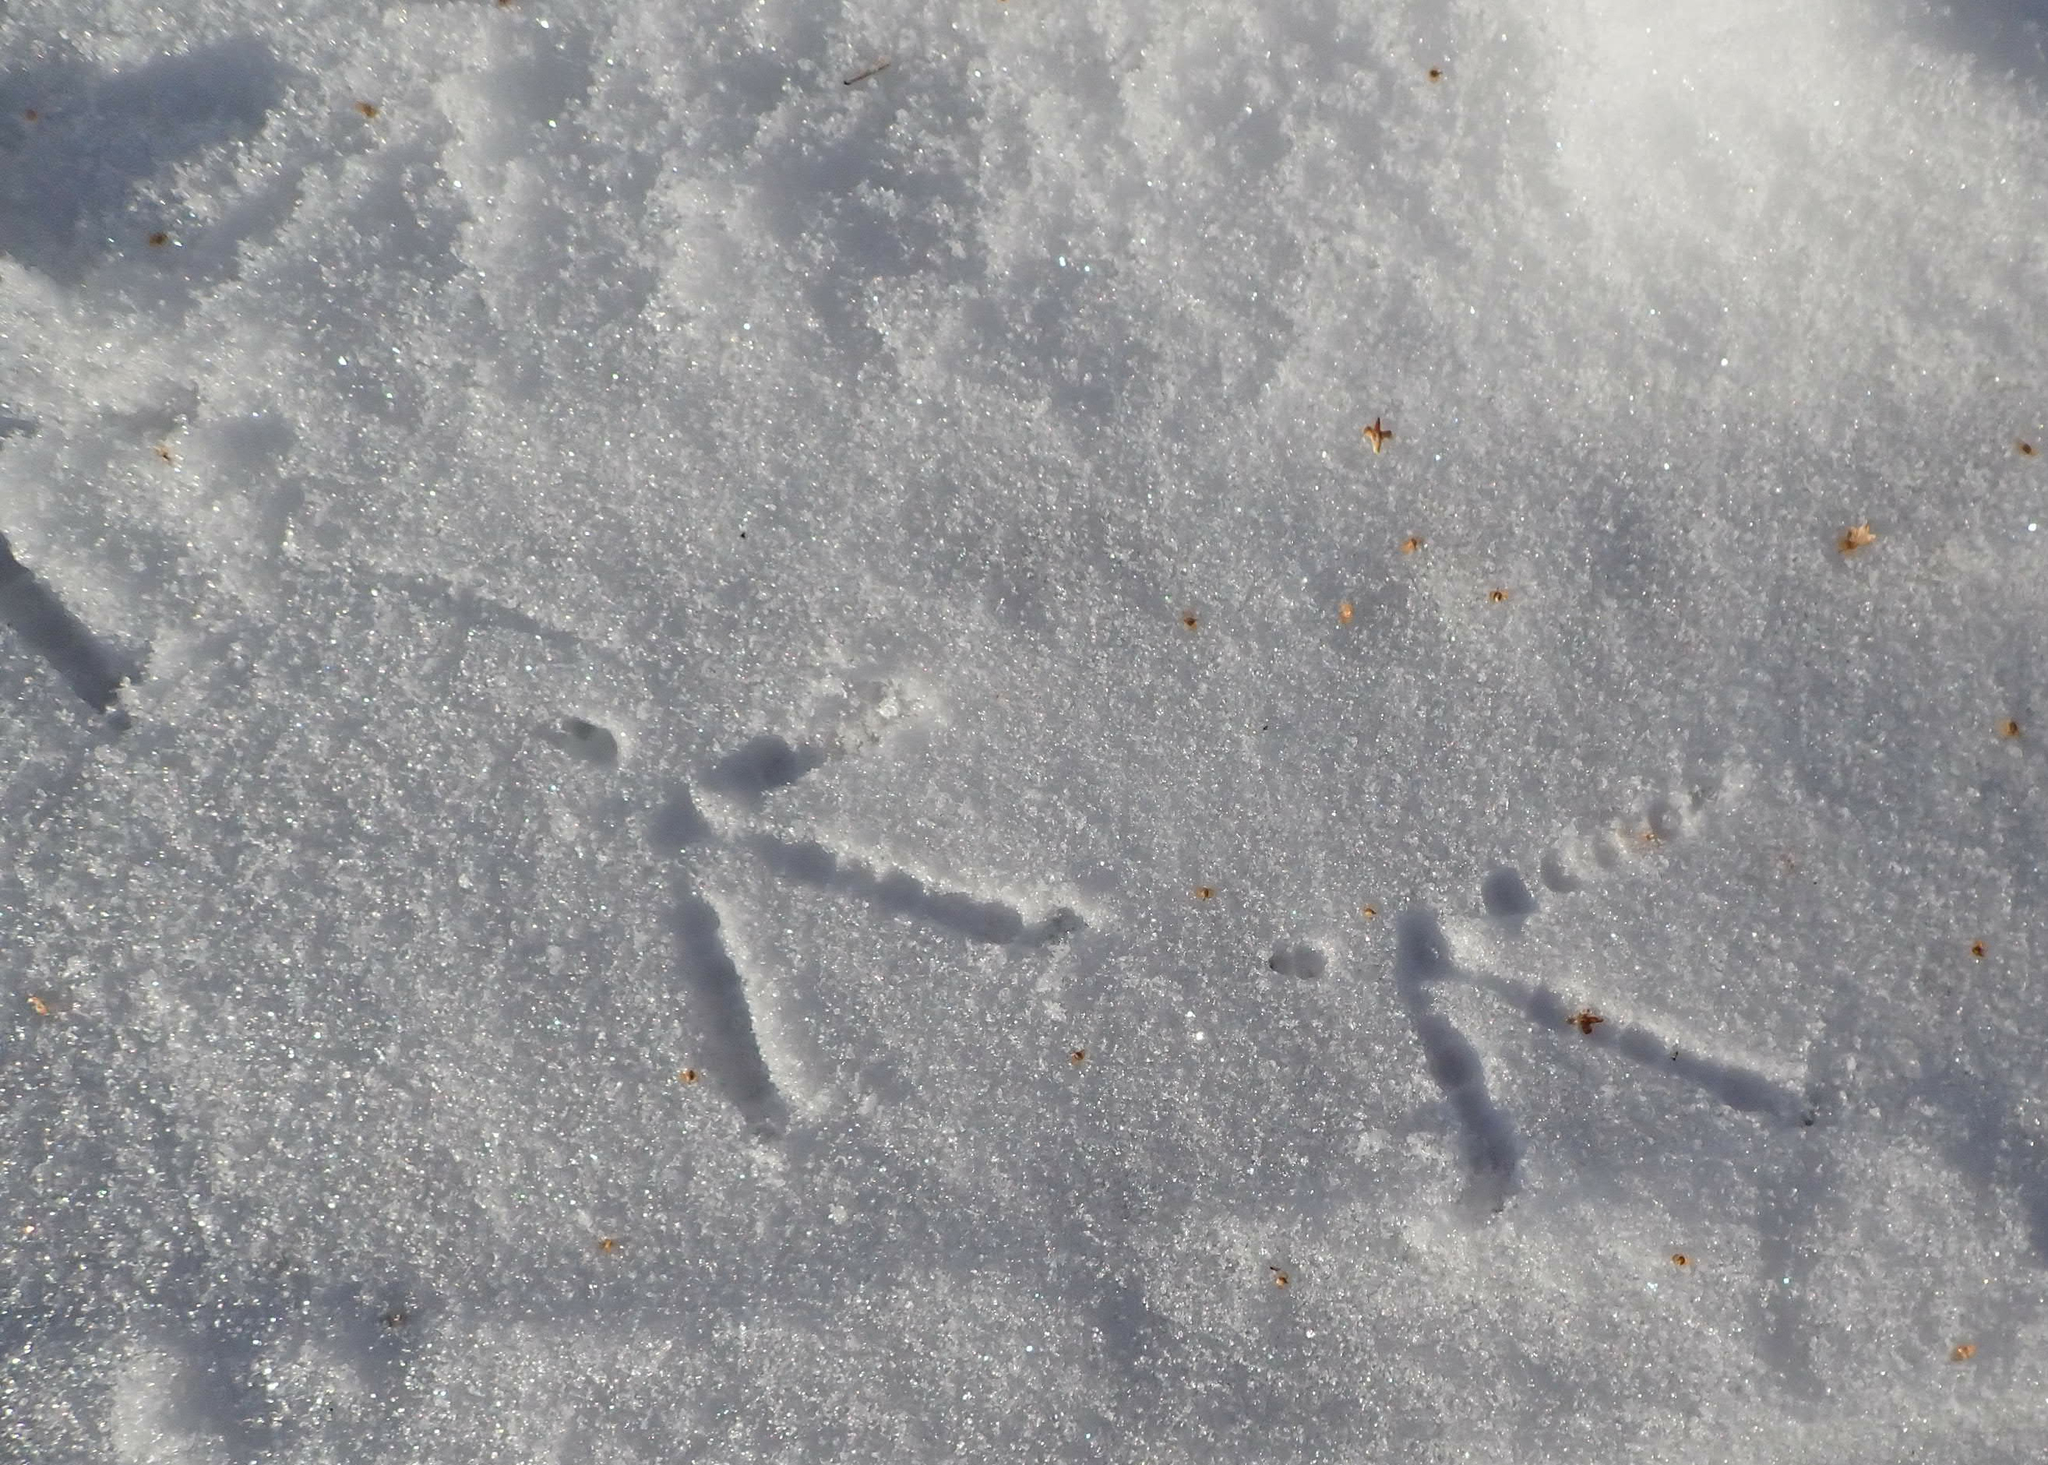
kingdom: Animalia
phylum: Chordata
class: Aves
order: Galliformes
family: Phasianidae
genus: Phasianus
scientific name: Phasianus colchicus
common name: Common pheasant
